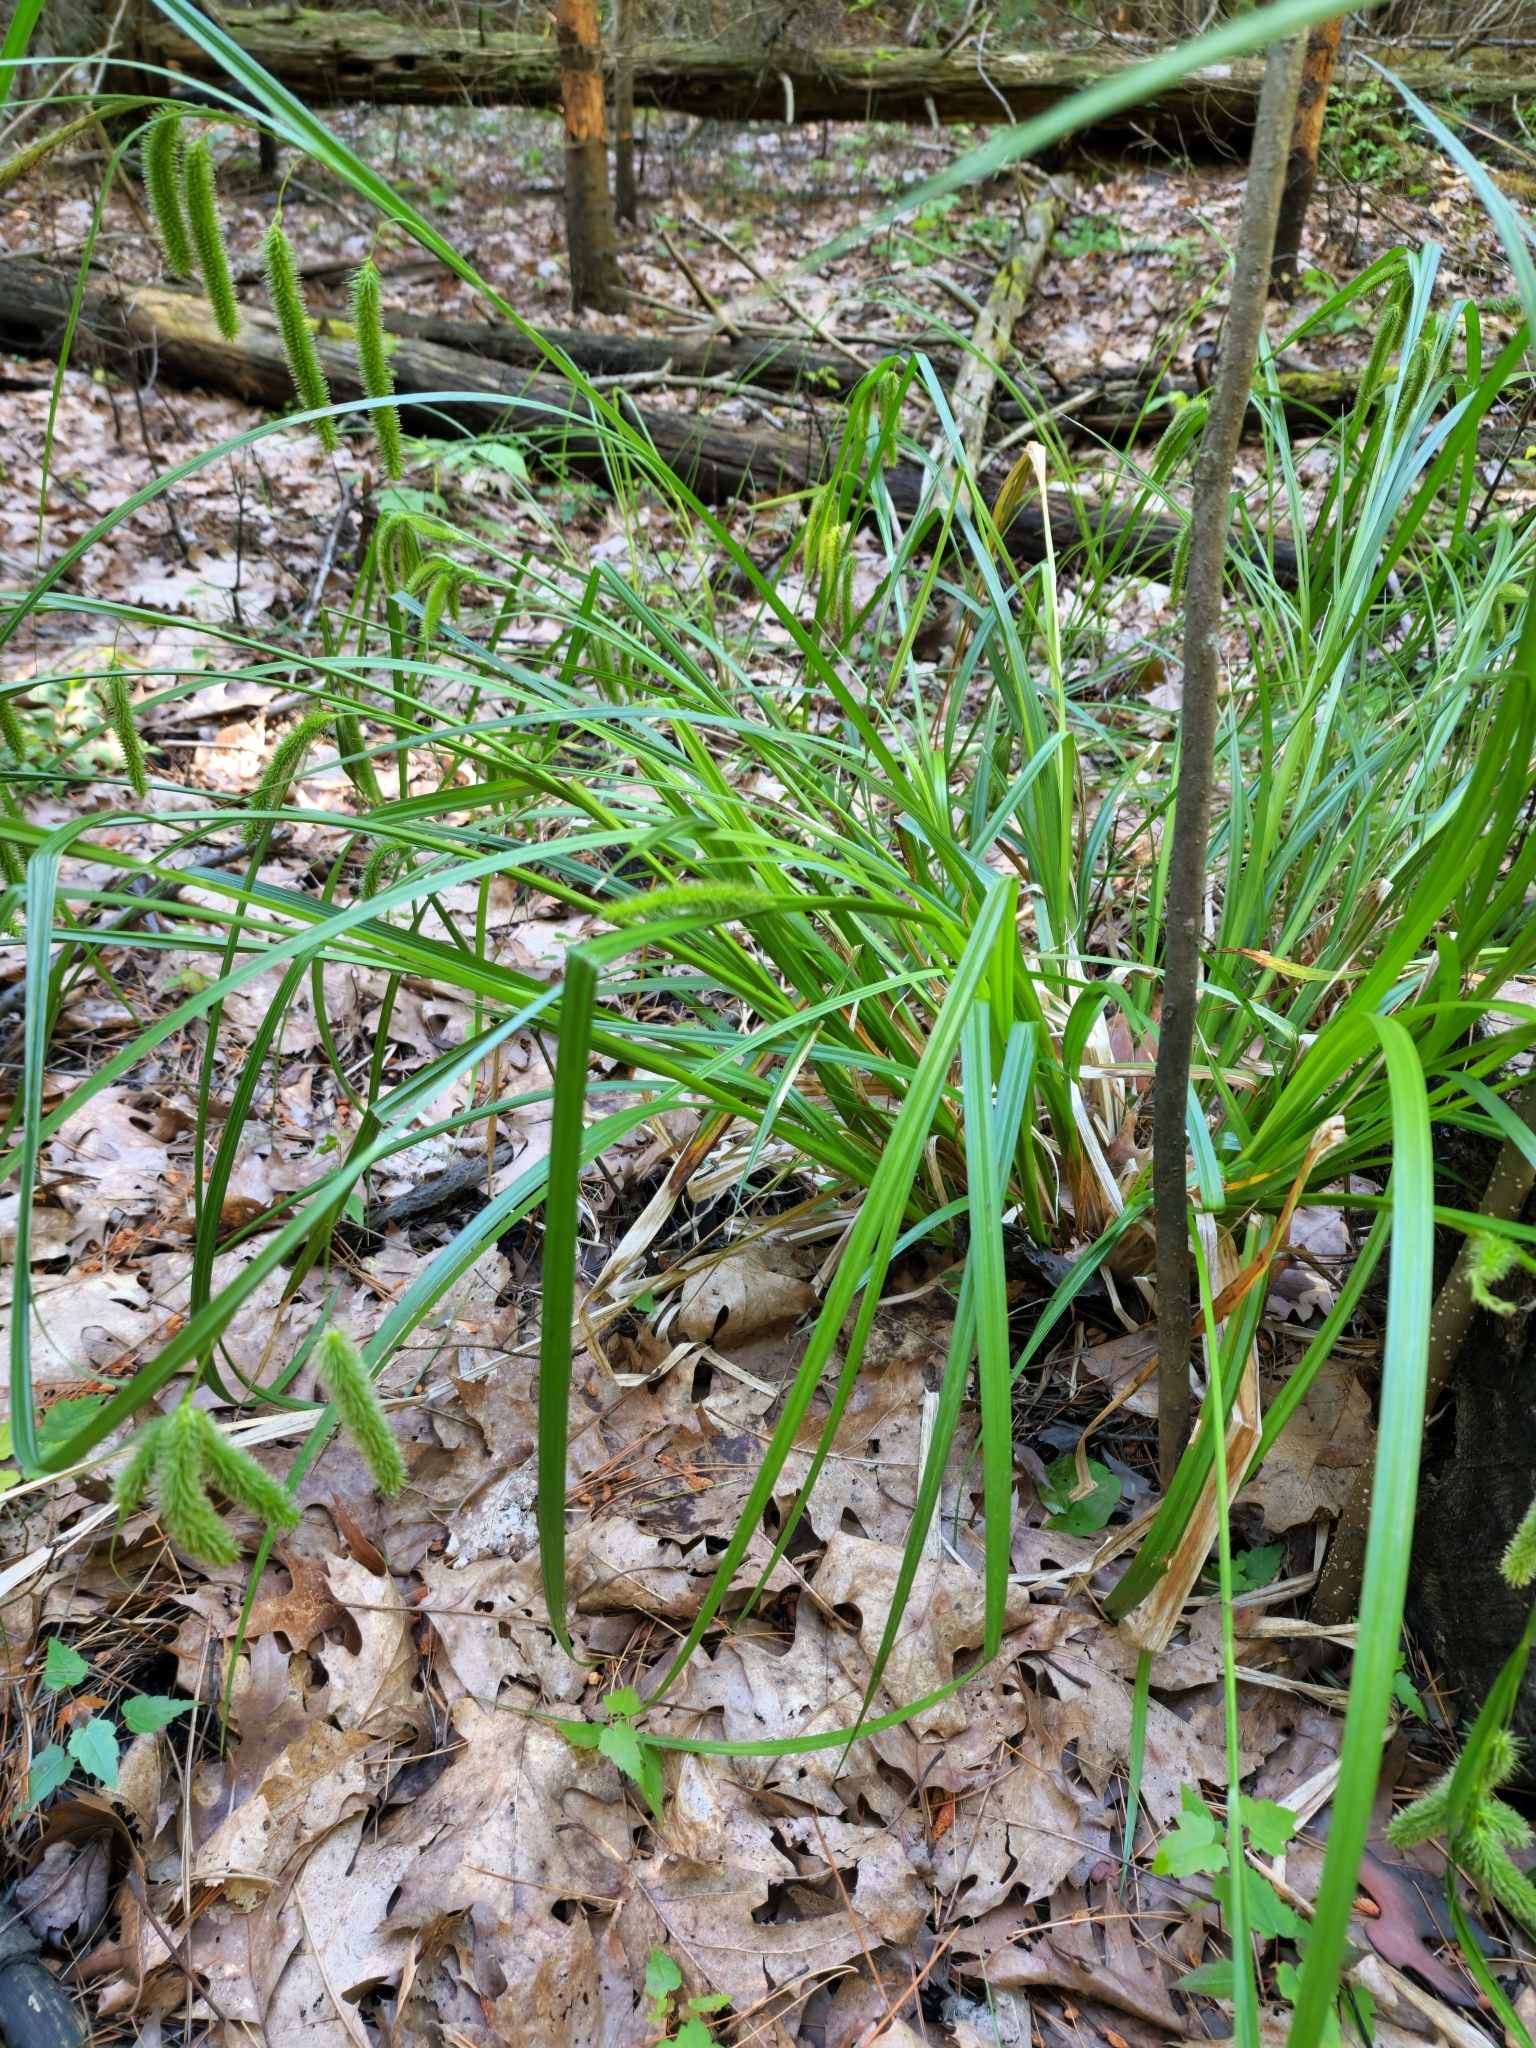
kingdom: Plantae
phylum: Tracheophyta
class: Liliopsida
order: Poales
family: Cyperaceae
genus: Carex
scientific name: Carex pseudocyperus
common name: Cyperus sedge
